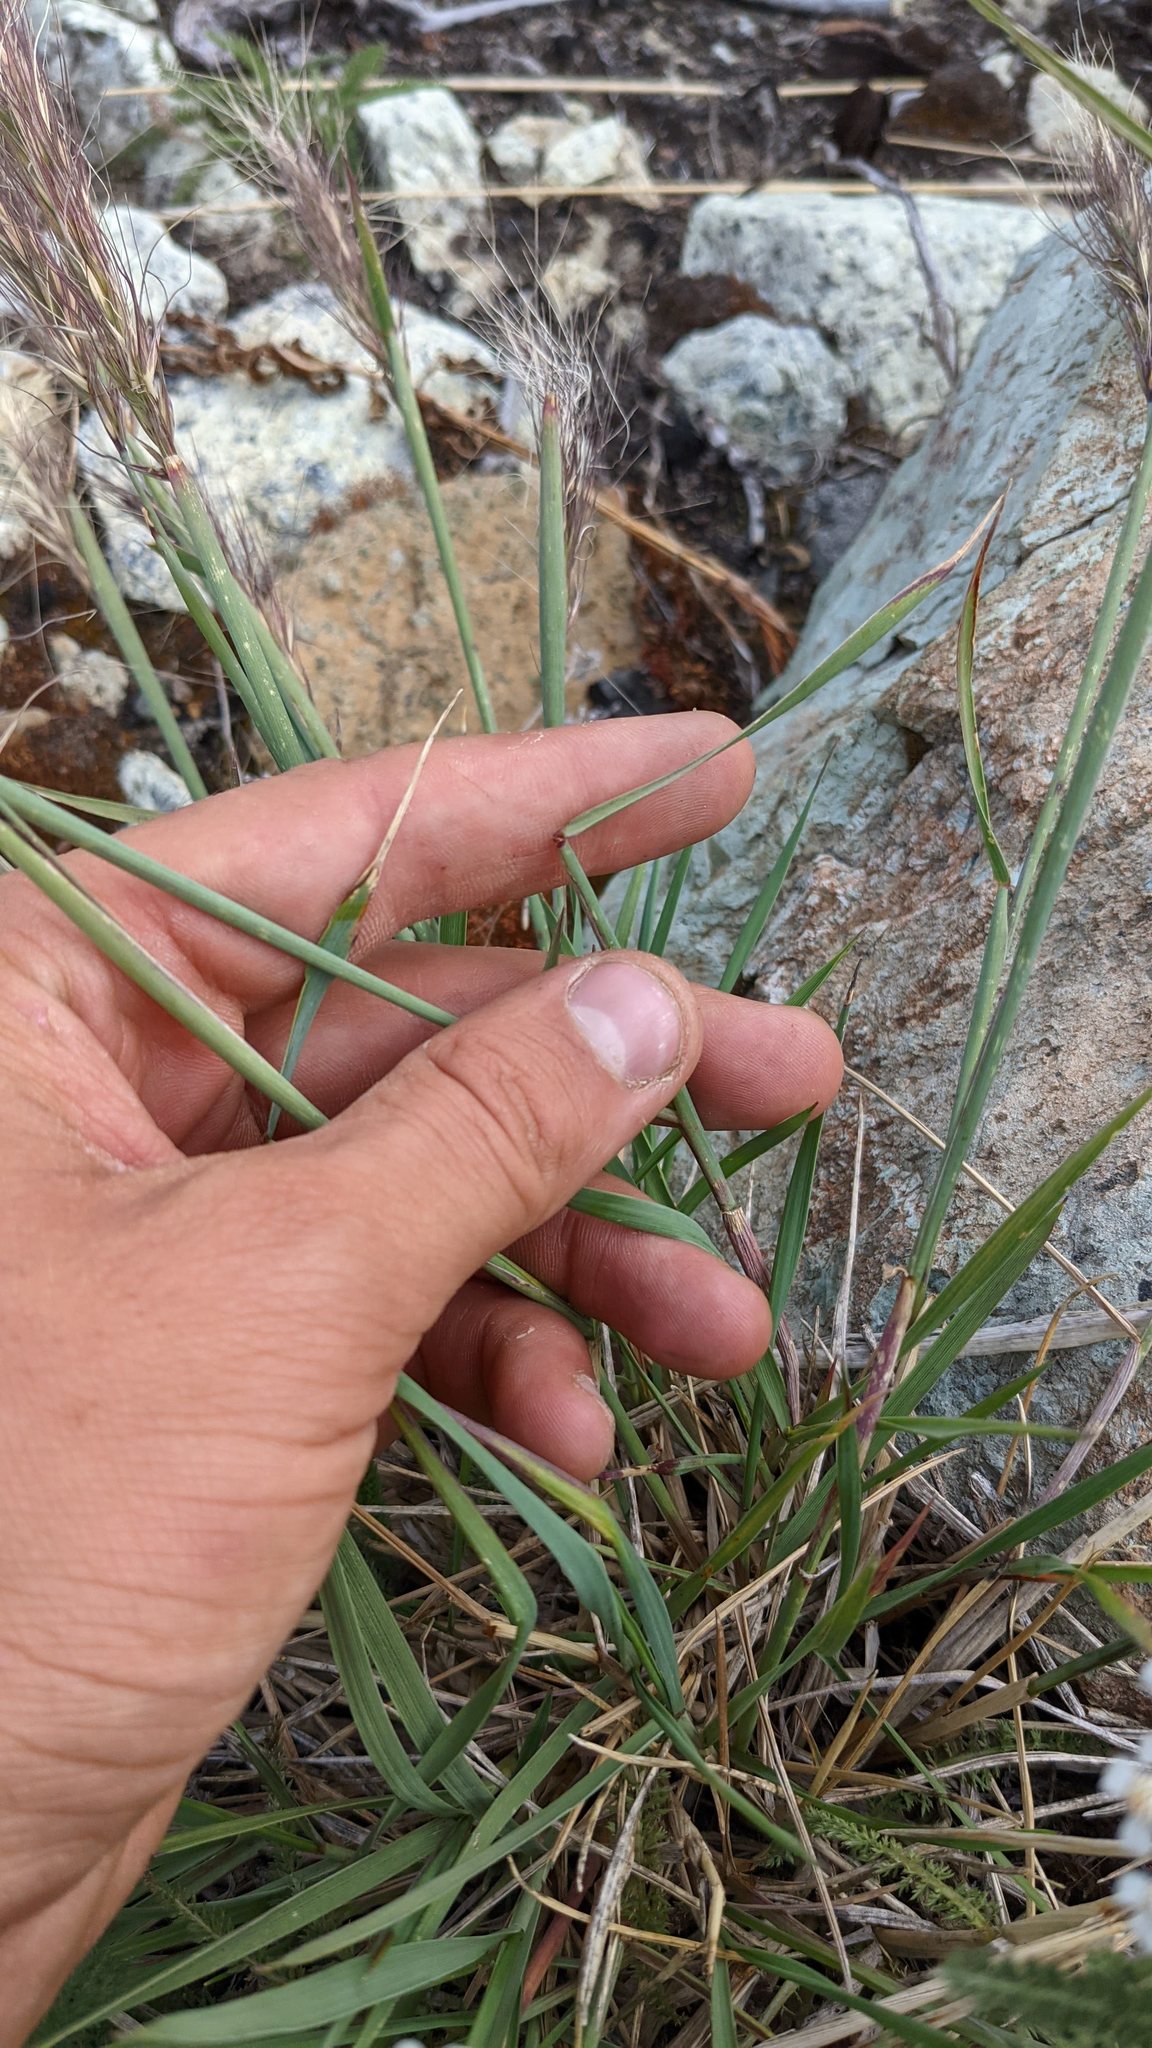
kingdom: Plantae
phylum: Tracheophyta
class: Liliopsida
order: Poales
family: Poaceae
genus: Elymus
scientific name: Elymus elymoides
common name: Bottlebrush squirreltail
